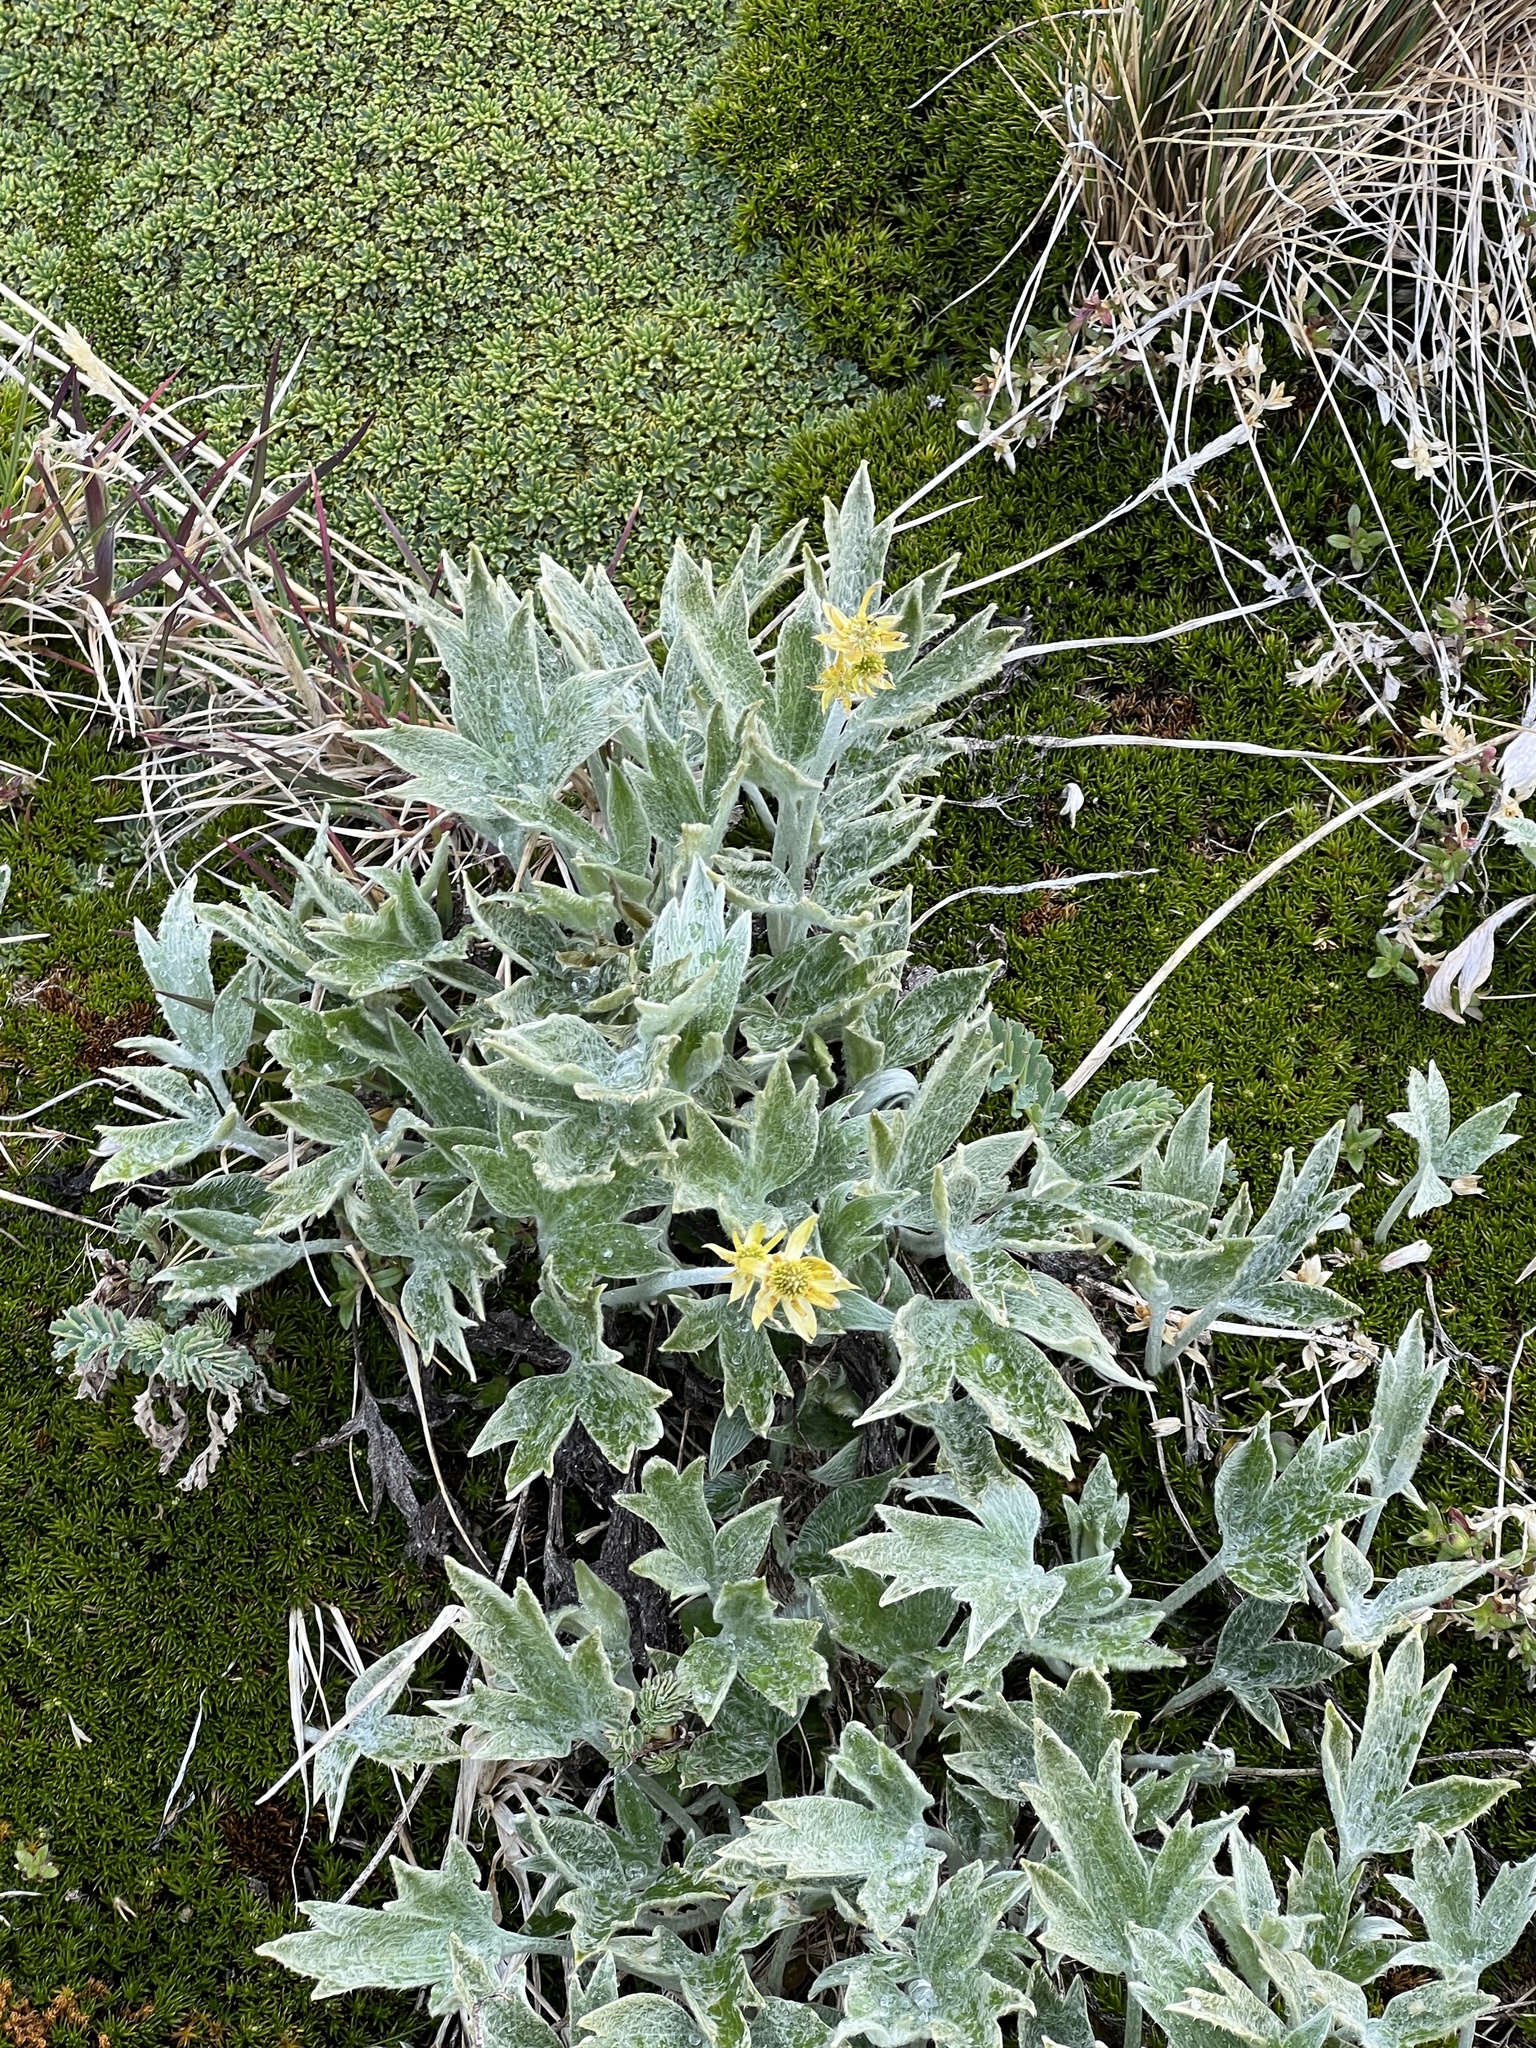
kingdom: Plantae
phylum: Tracheophyta
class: Magnoliopsida
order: Ranunculales
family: Ranunculaceae
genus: Hamadryas
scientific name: Hamadryas magellanica
